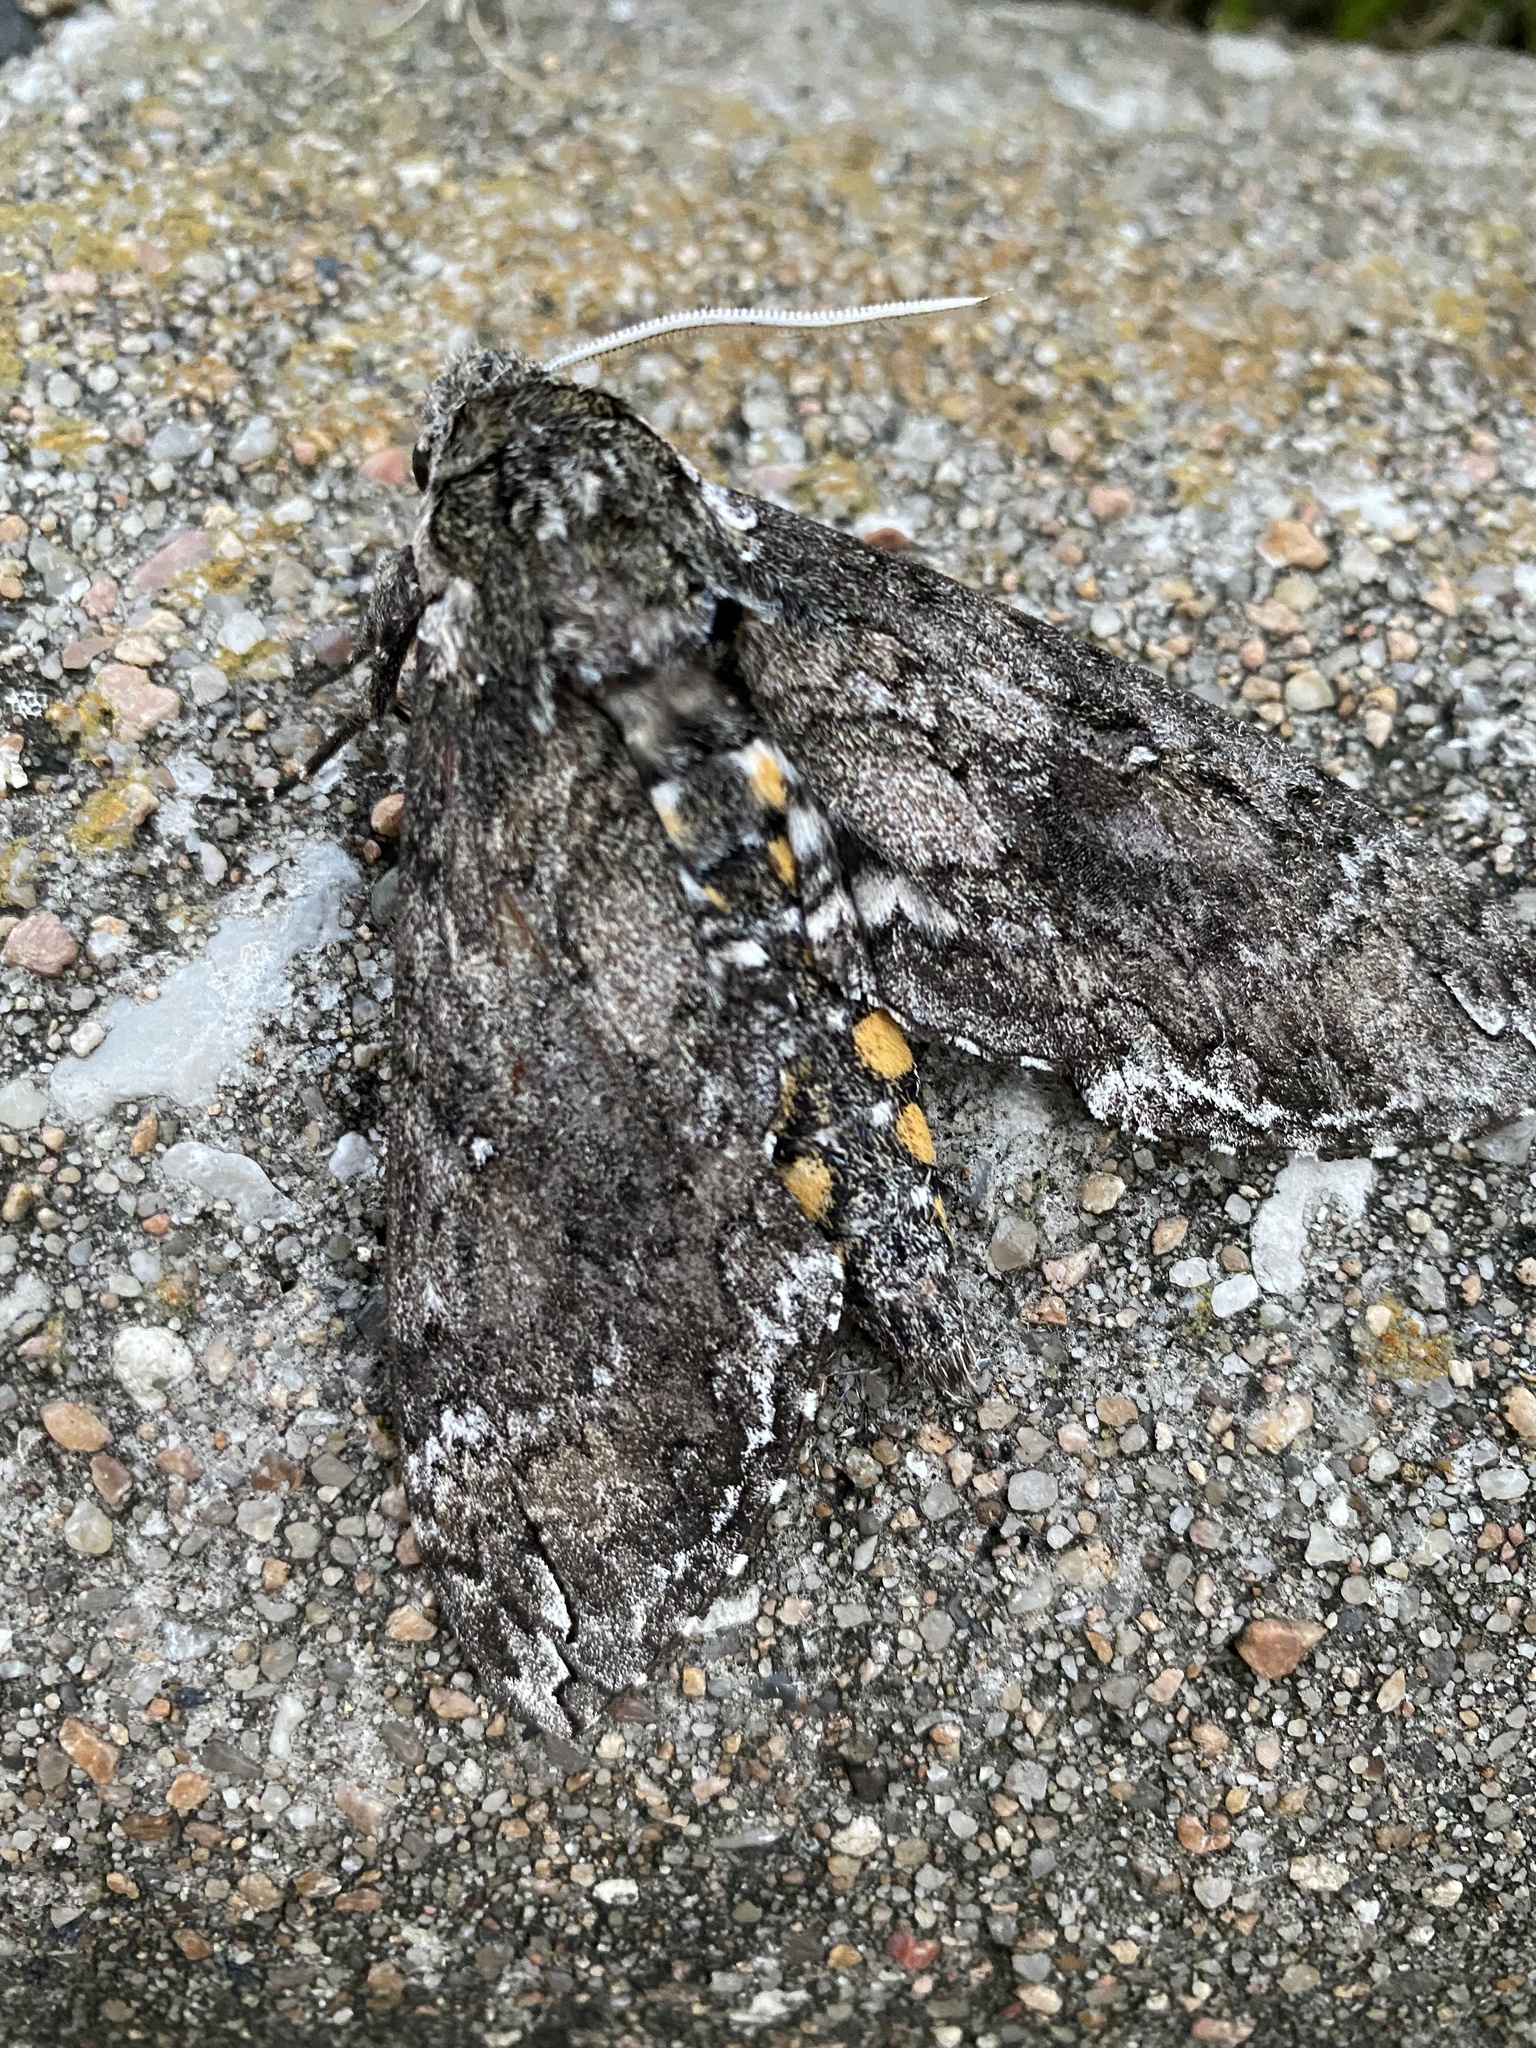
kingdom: Animalia
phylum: Arthropoda
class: Insecta
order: Lepidoptera
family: Sphingidae
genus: Manduca
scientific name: Manduca sexta
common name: Carolina sphinx
